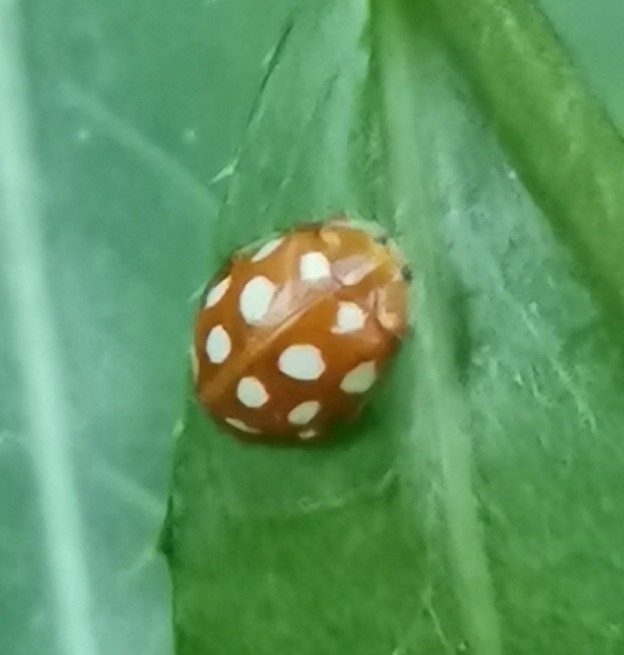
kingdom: Animalia
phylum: Arthropoda
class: Insecta
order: Coleoptera
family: Coccinellidae
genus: Halyzia
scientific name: Halyzia sedecimguttata
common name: Orange ladybird
